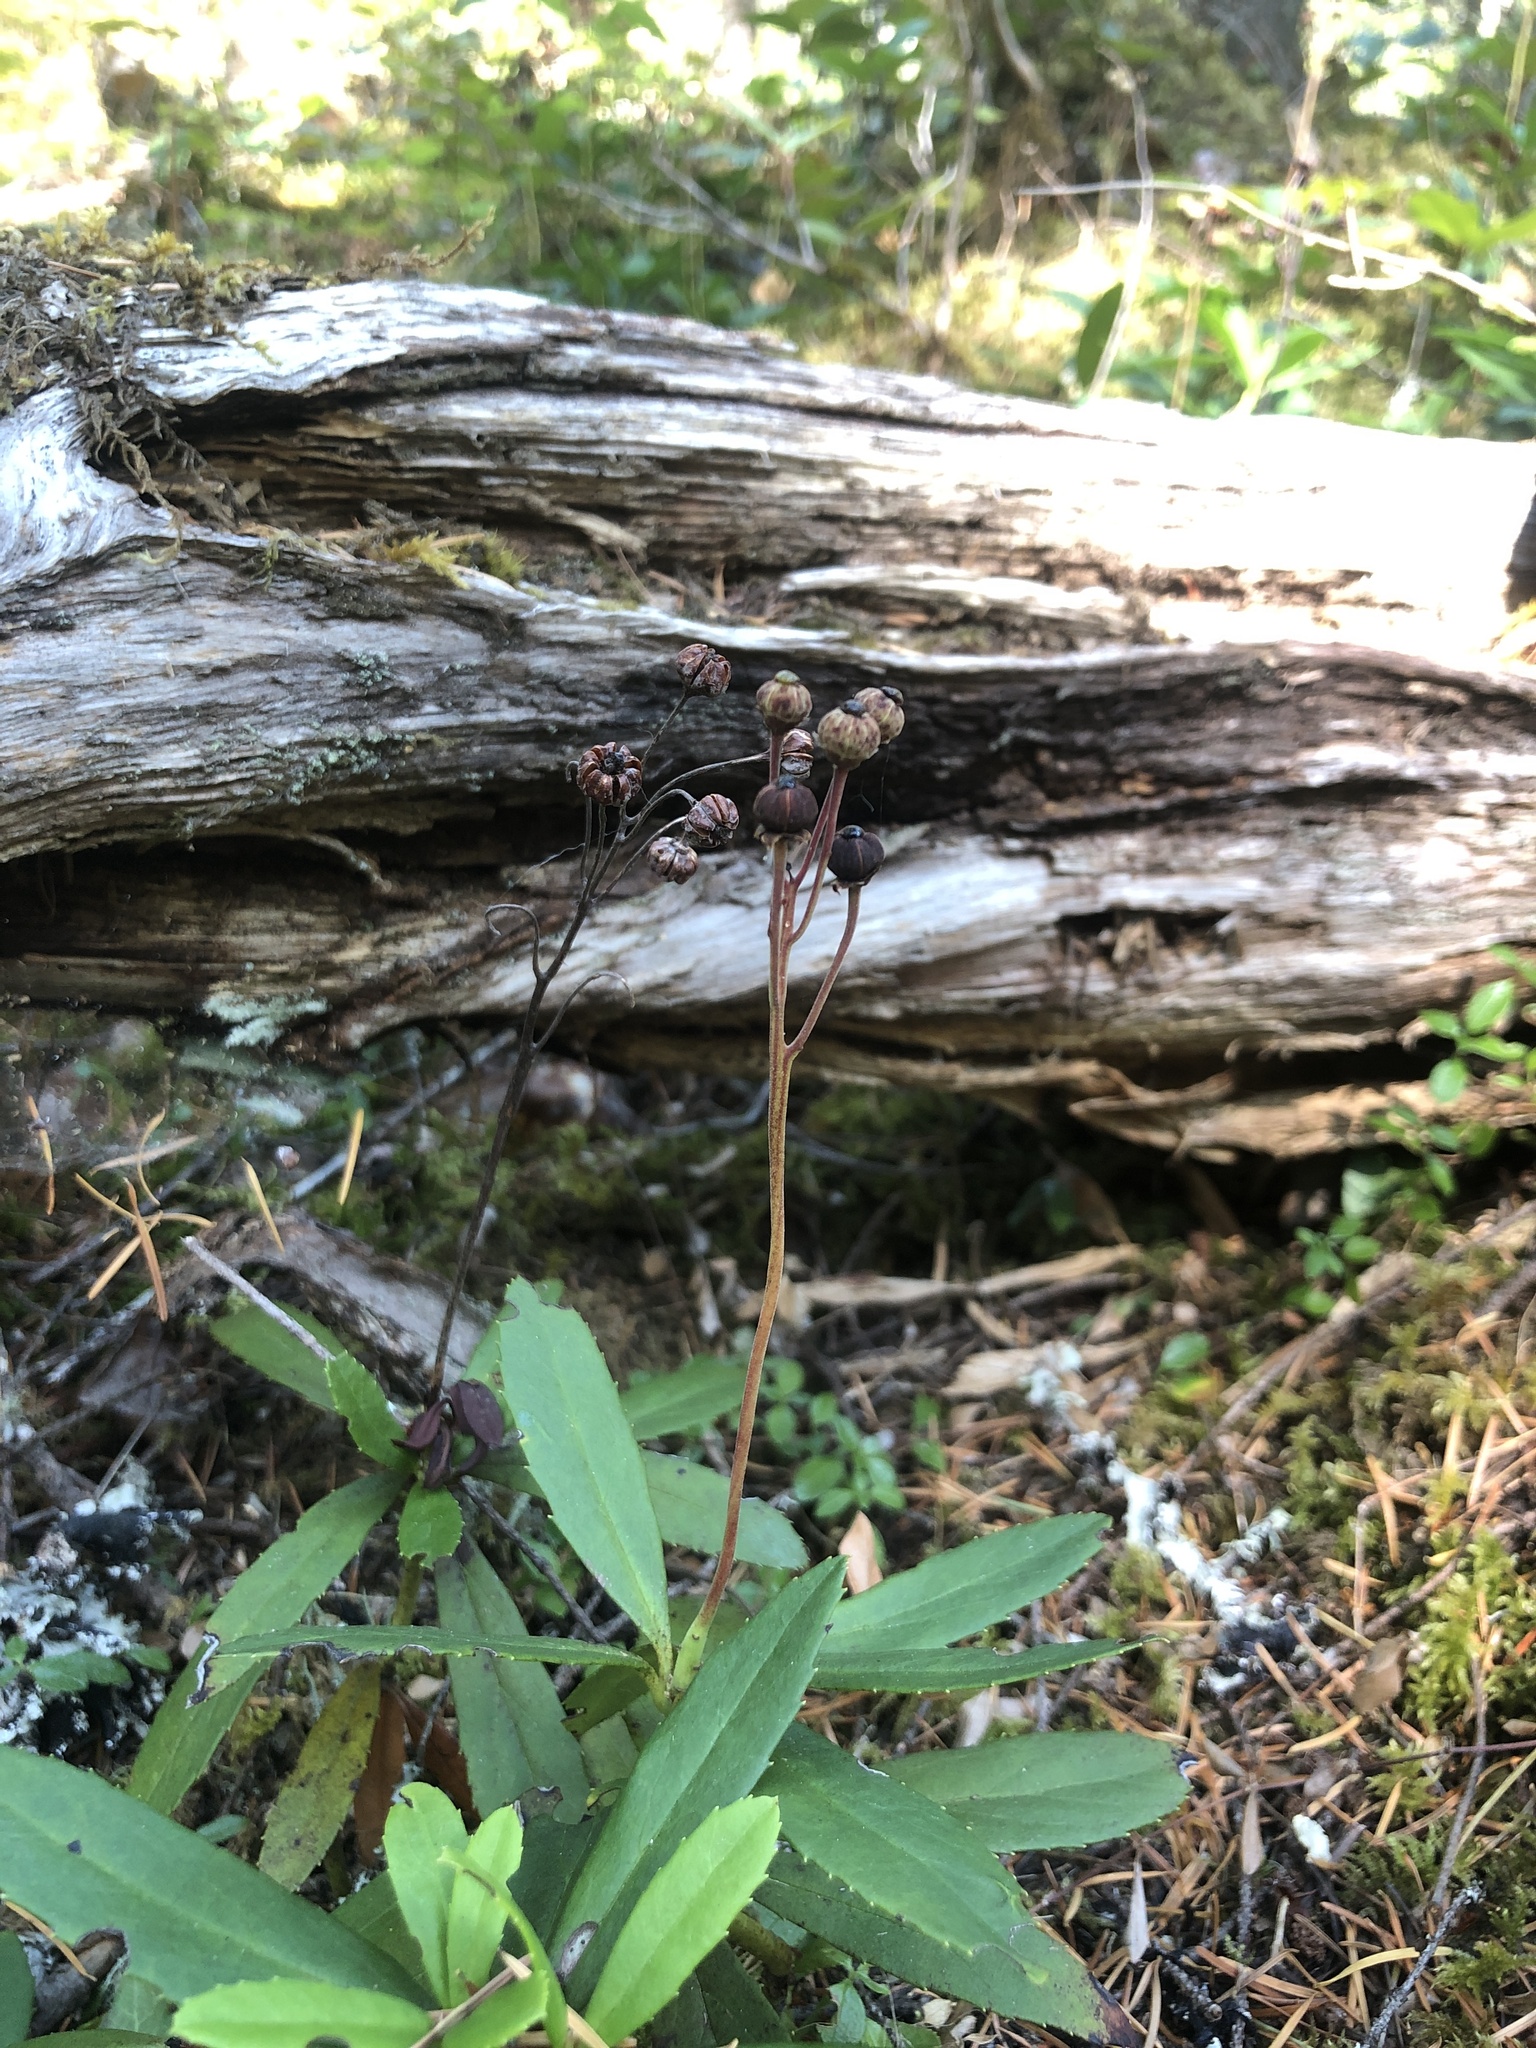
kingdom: Plantae
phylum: Tracheophyta
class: Magnoliopsida
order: Ericales
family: Ericaceae
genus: Chimaphila
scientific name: Chimaphila umbellata
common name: Pipsissewa
